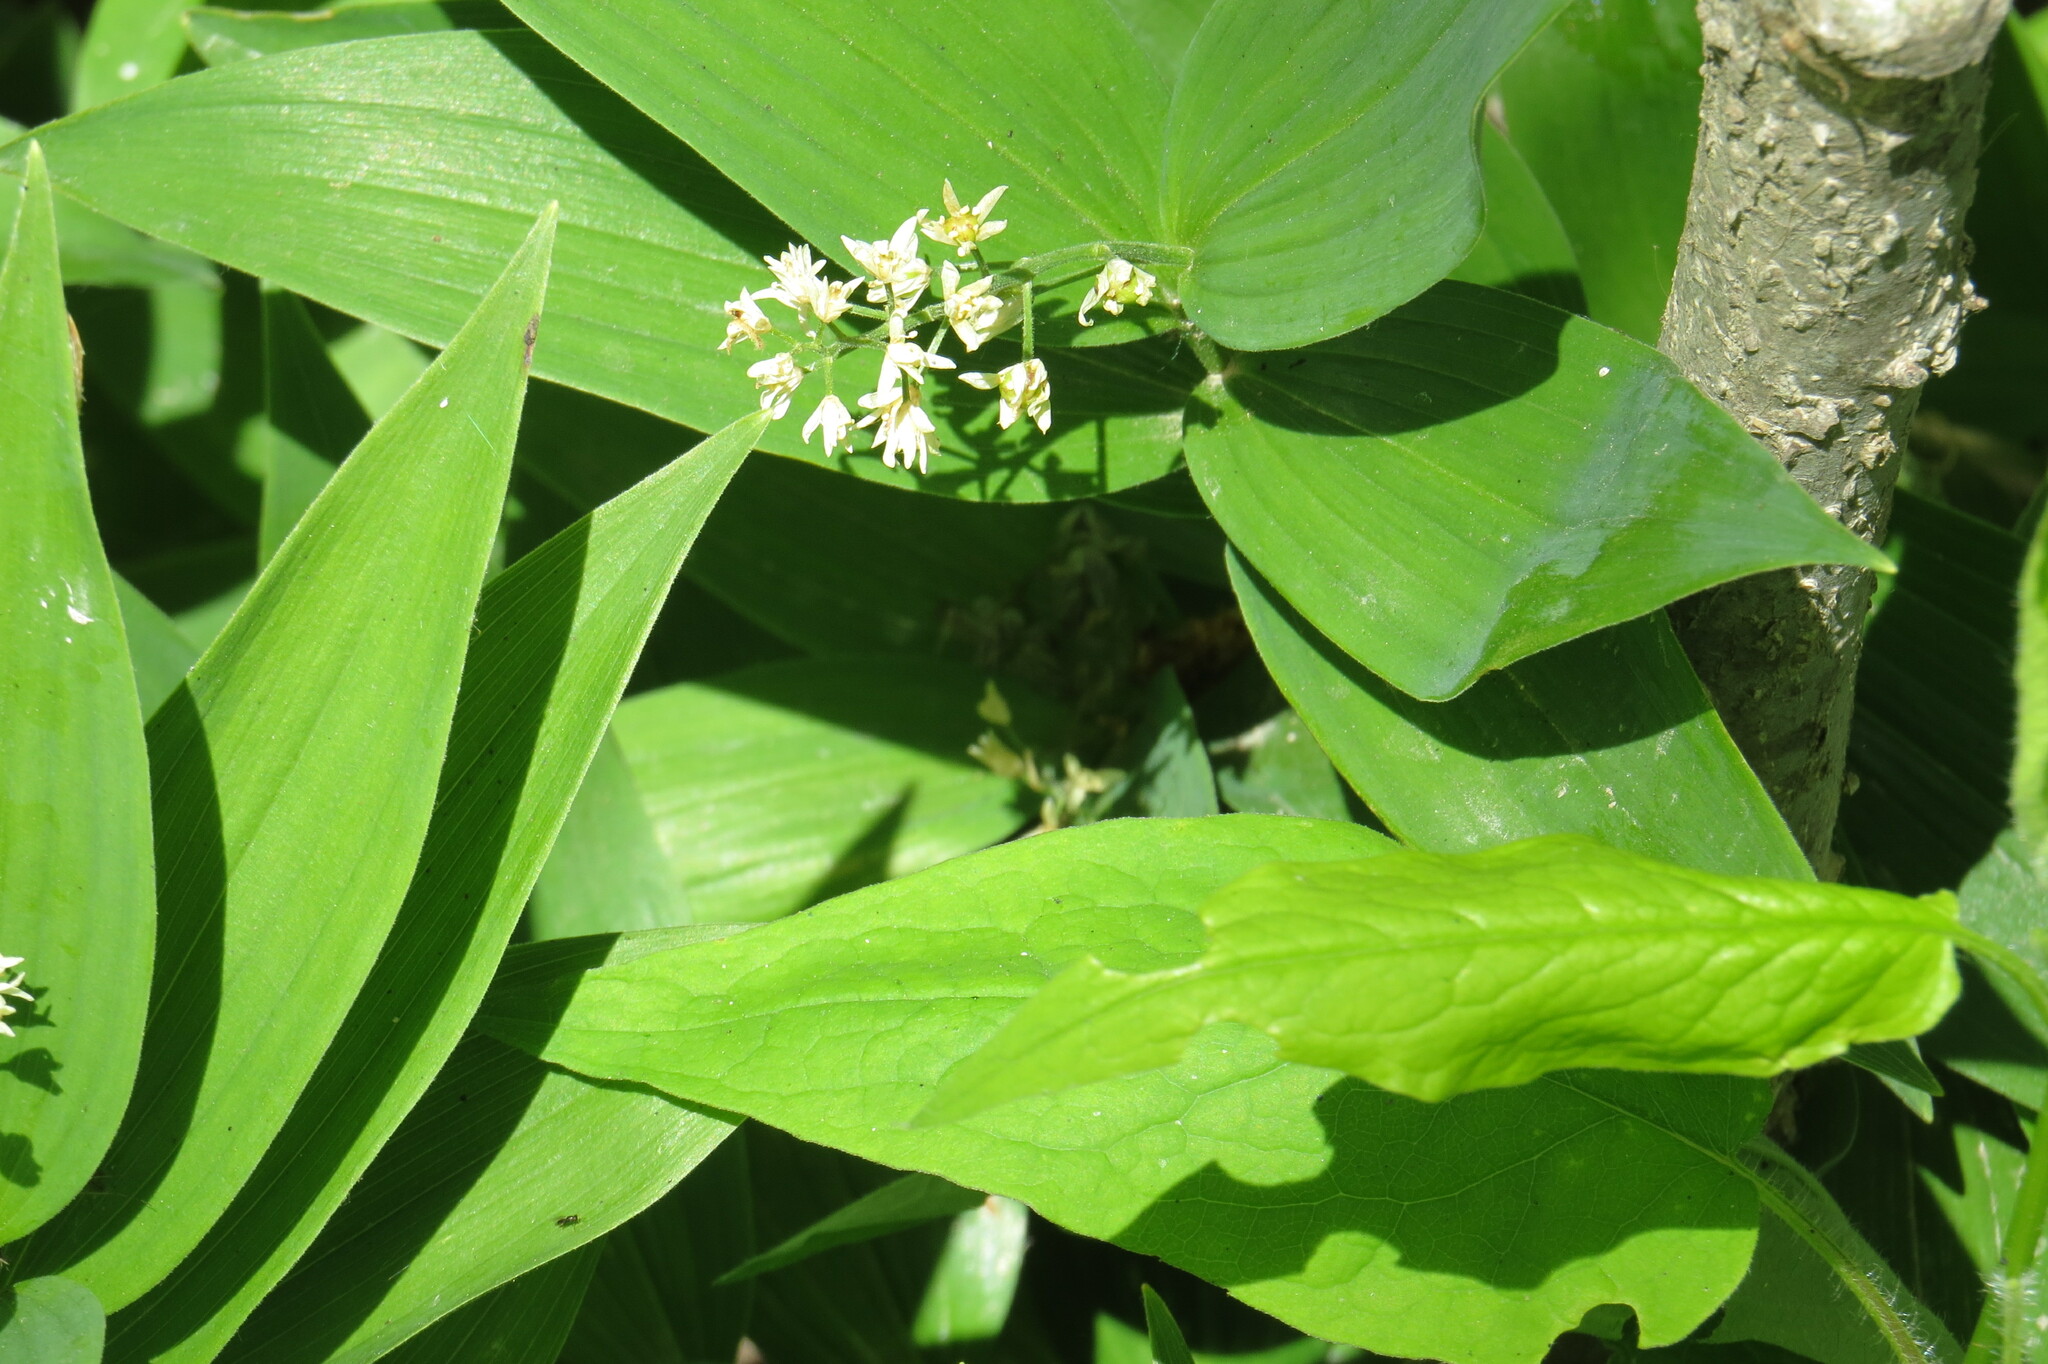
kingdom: Plantae
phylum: Tracheophyta
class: Liliopsida
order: Asparagales
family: Asparagaceae
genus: Maianthemum
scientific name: Maianthemum stellatum
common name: Little false solomon's seal
